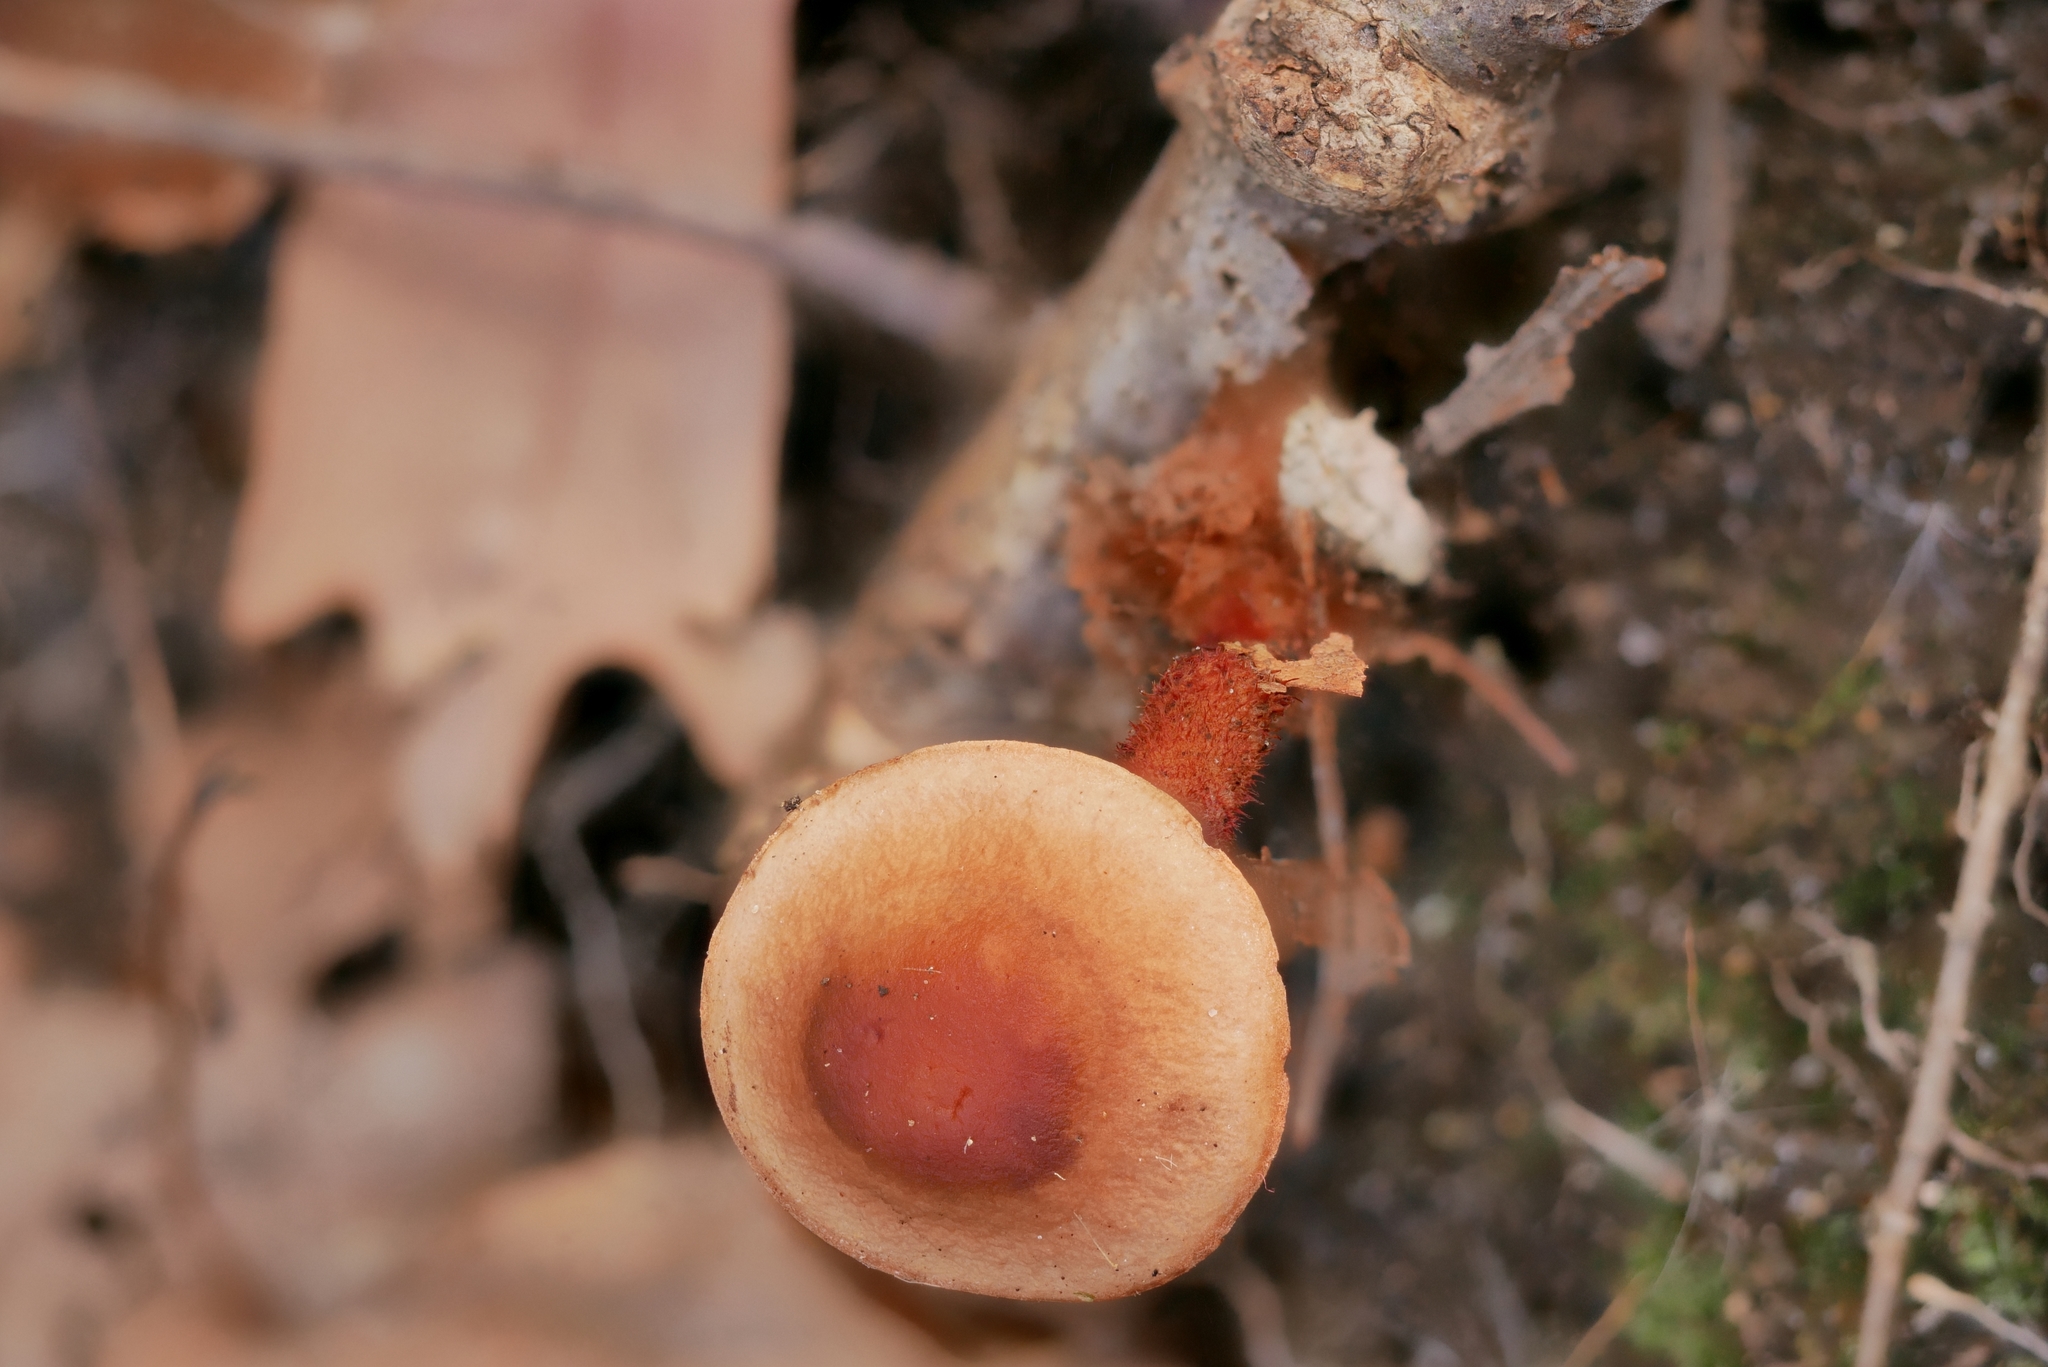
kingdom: Fungi
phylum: Basidiomycota
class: Agaricomycetes
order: Agaricales
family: Omphalotaceae
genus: Gymnopus
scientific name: Gymnopus spongiosus
